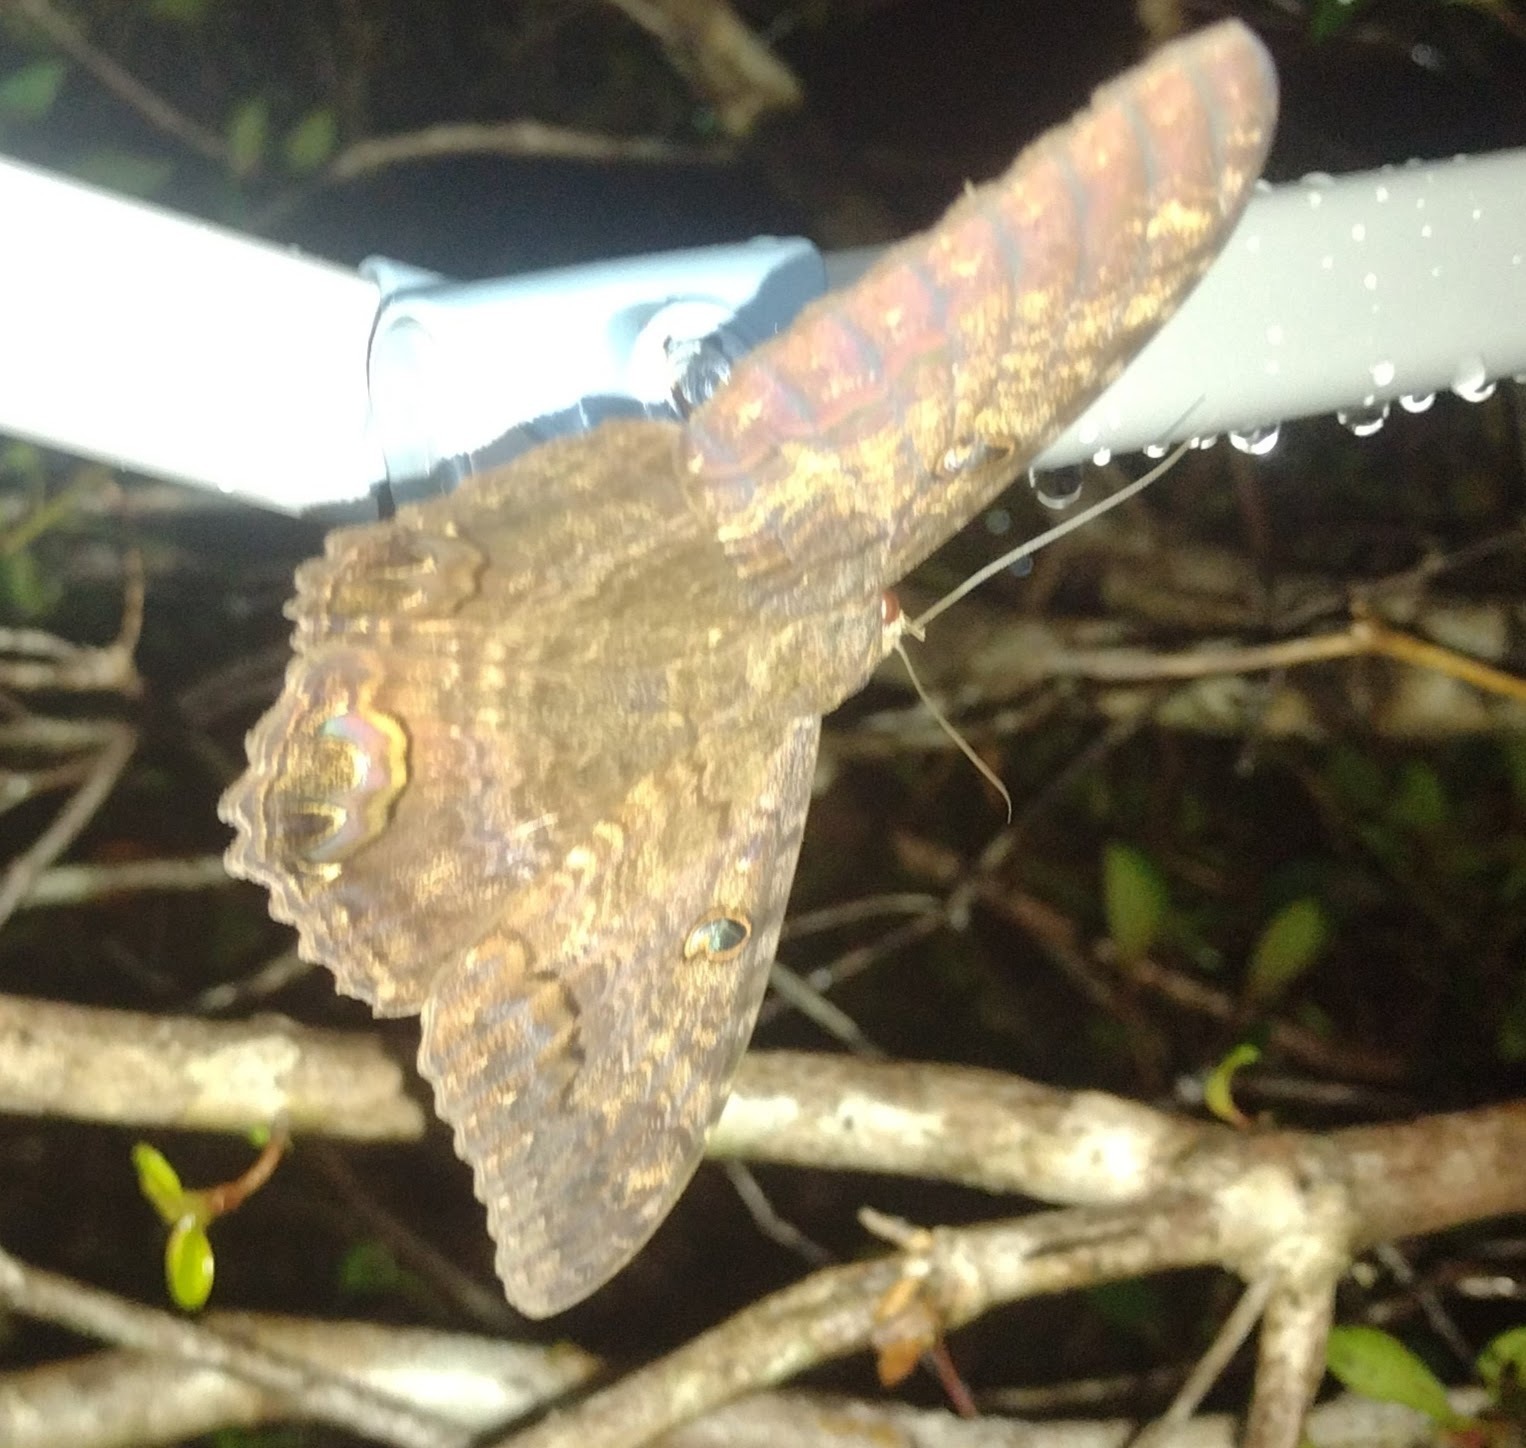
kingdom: Animalia
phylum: Arthropoda
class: Insecta
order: Lepidoptera
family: Erebidae
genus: Ascalapha
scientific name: Ascalapha odorata
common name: Black witch
